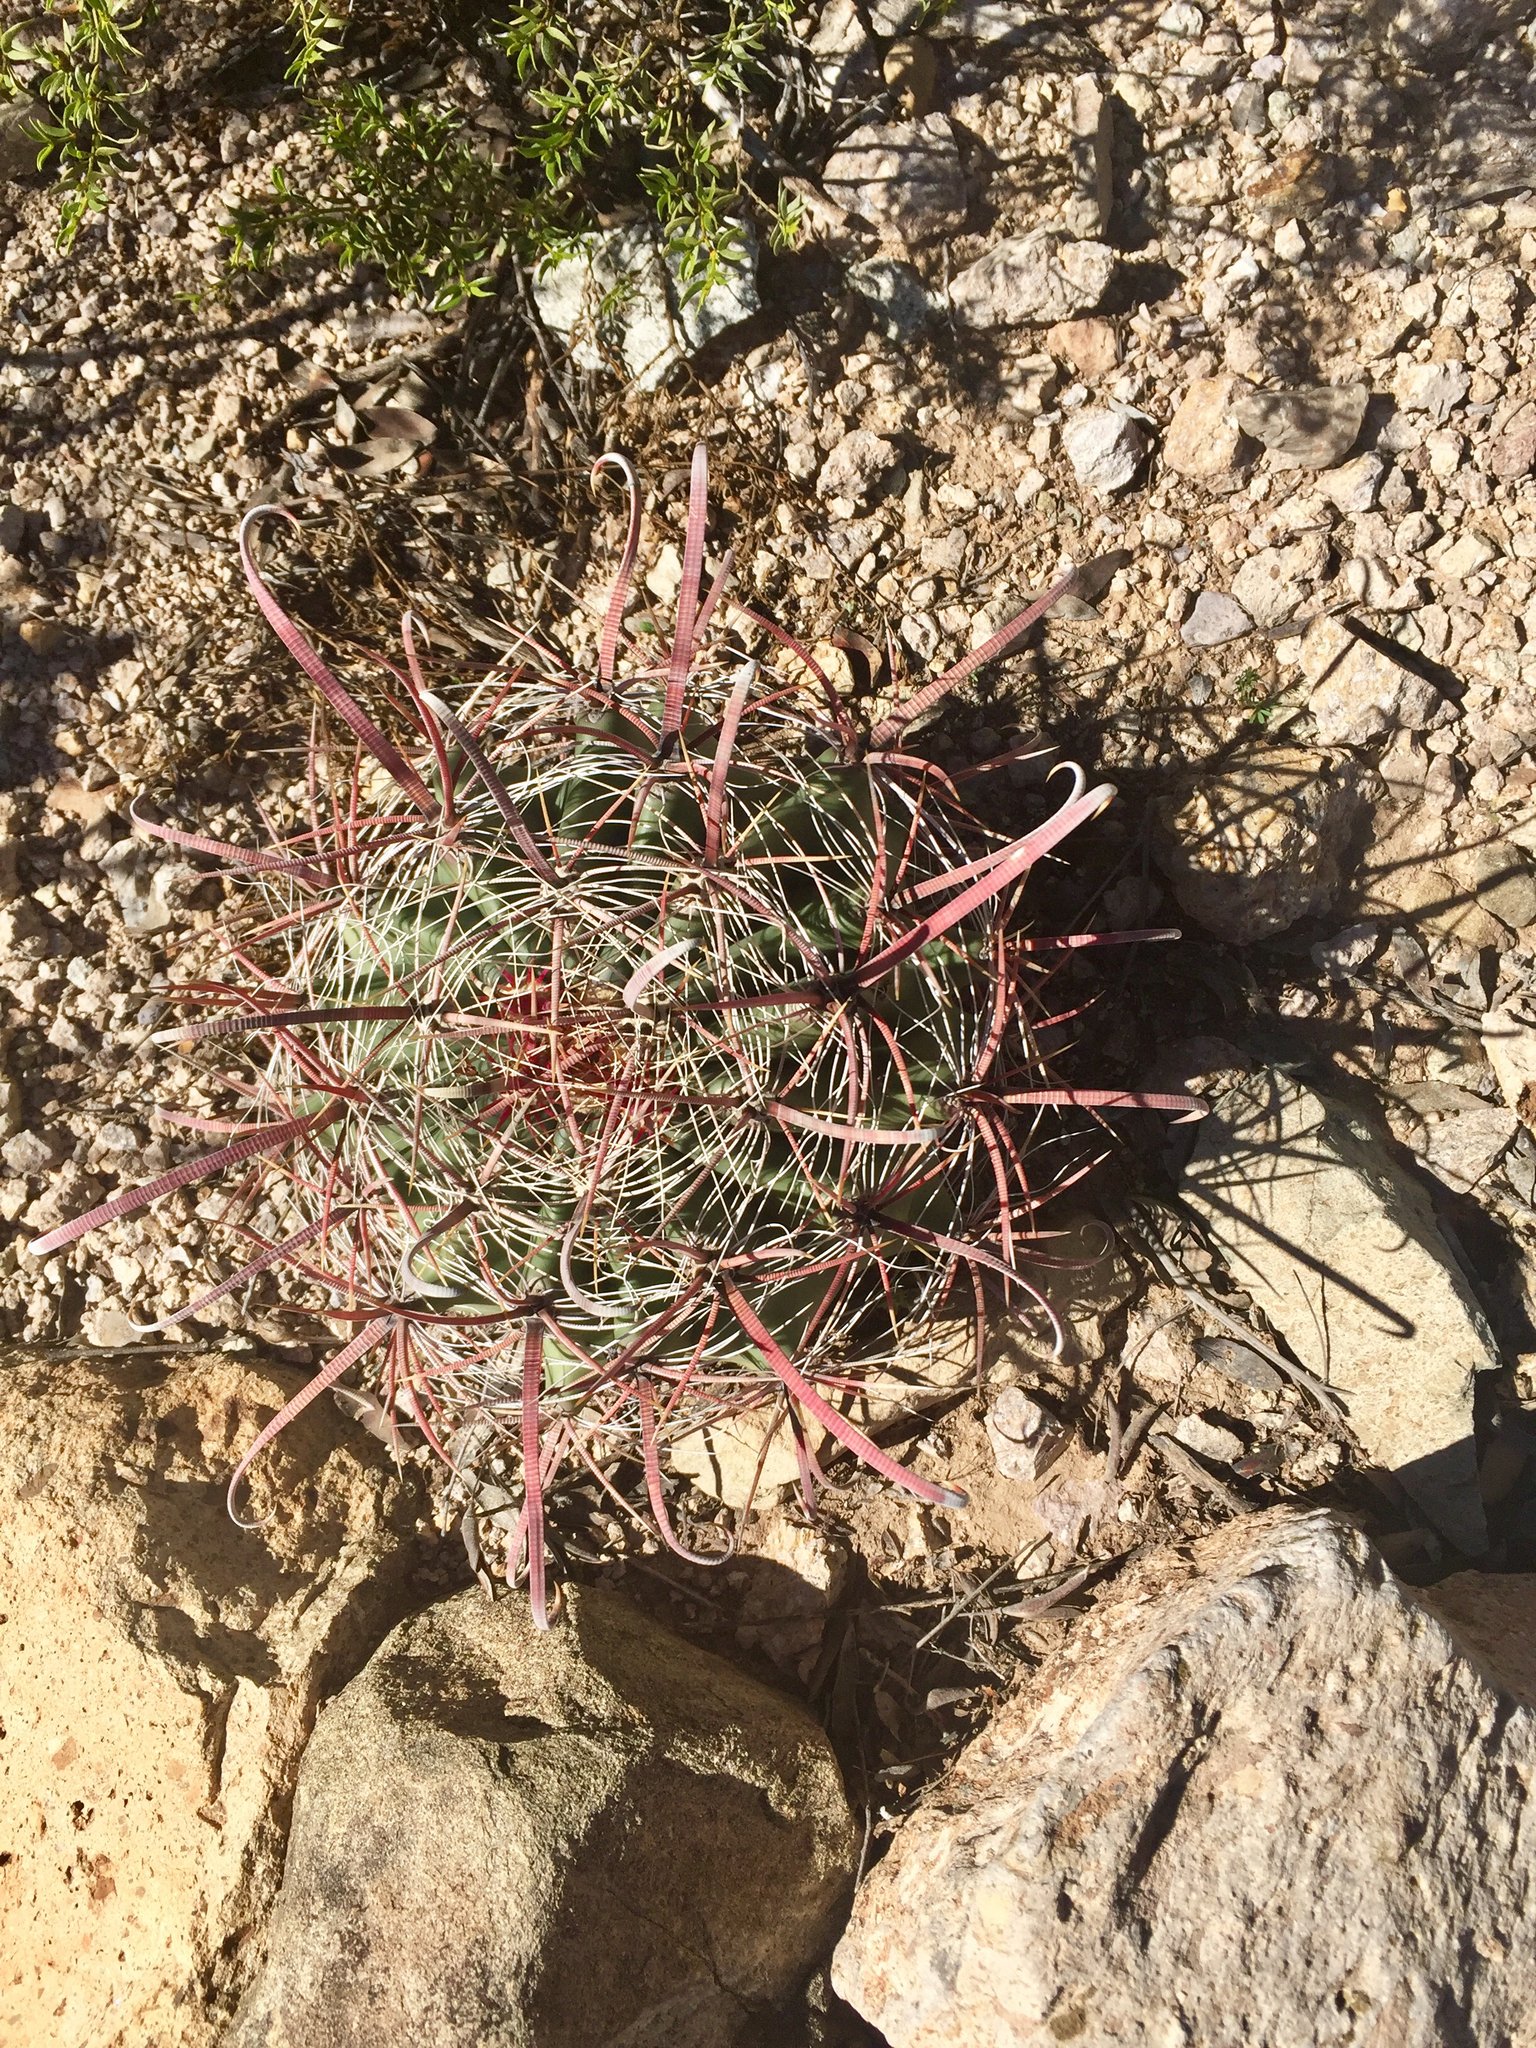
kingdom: Plantae
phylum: Tracheophyta
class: Magnoliopsida
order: Caryophyllales
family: Cactaceae
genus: Ferocactus
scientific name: Ferocactus wislizeni
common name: Candy barrel cactus
